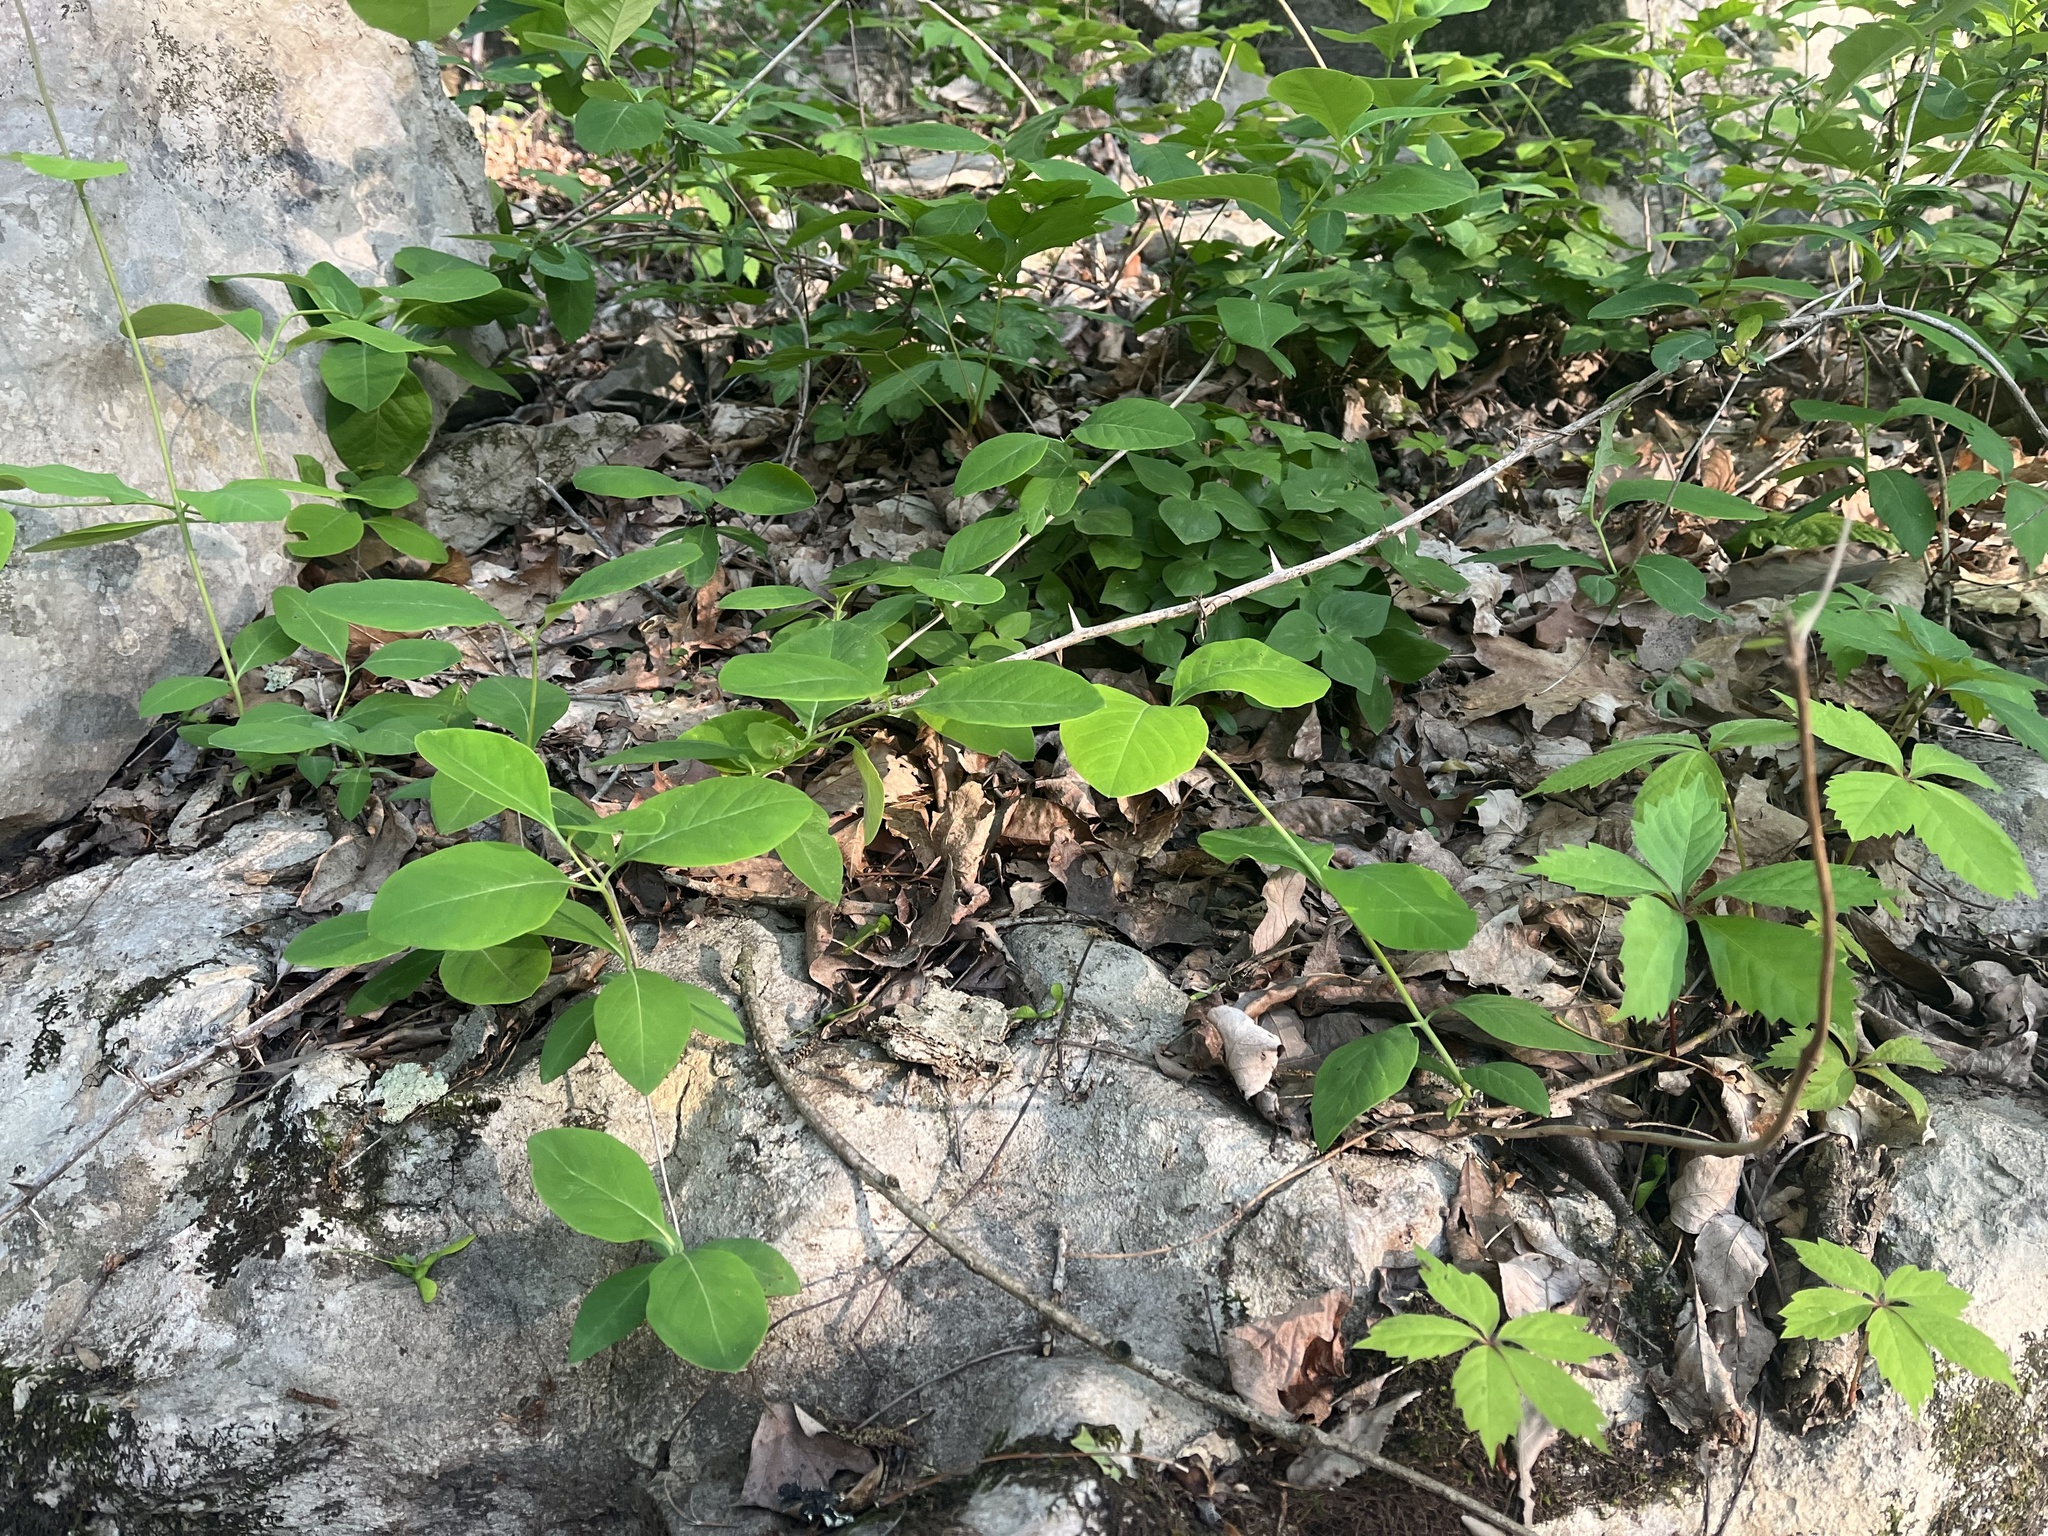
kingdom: Plantae
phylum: Tracheophyta
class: Magnoliopsida
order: Dipsacales
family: Caprifoliaceae
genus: Lonicera
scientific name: Lonicera dioica
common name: Limber honeysuckle
